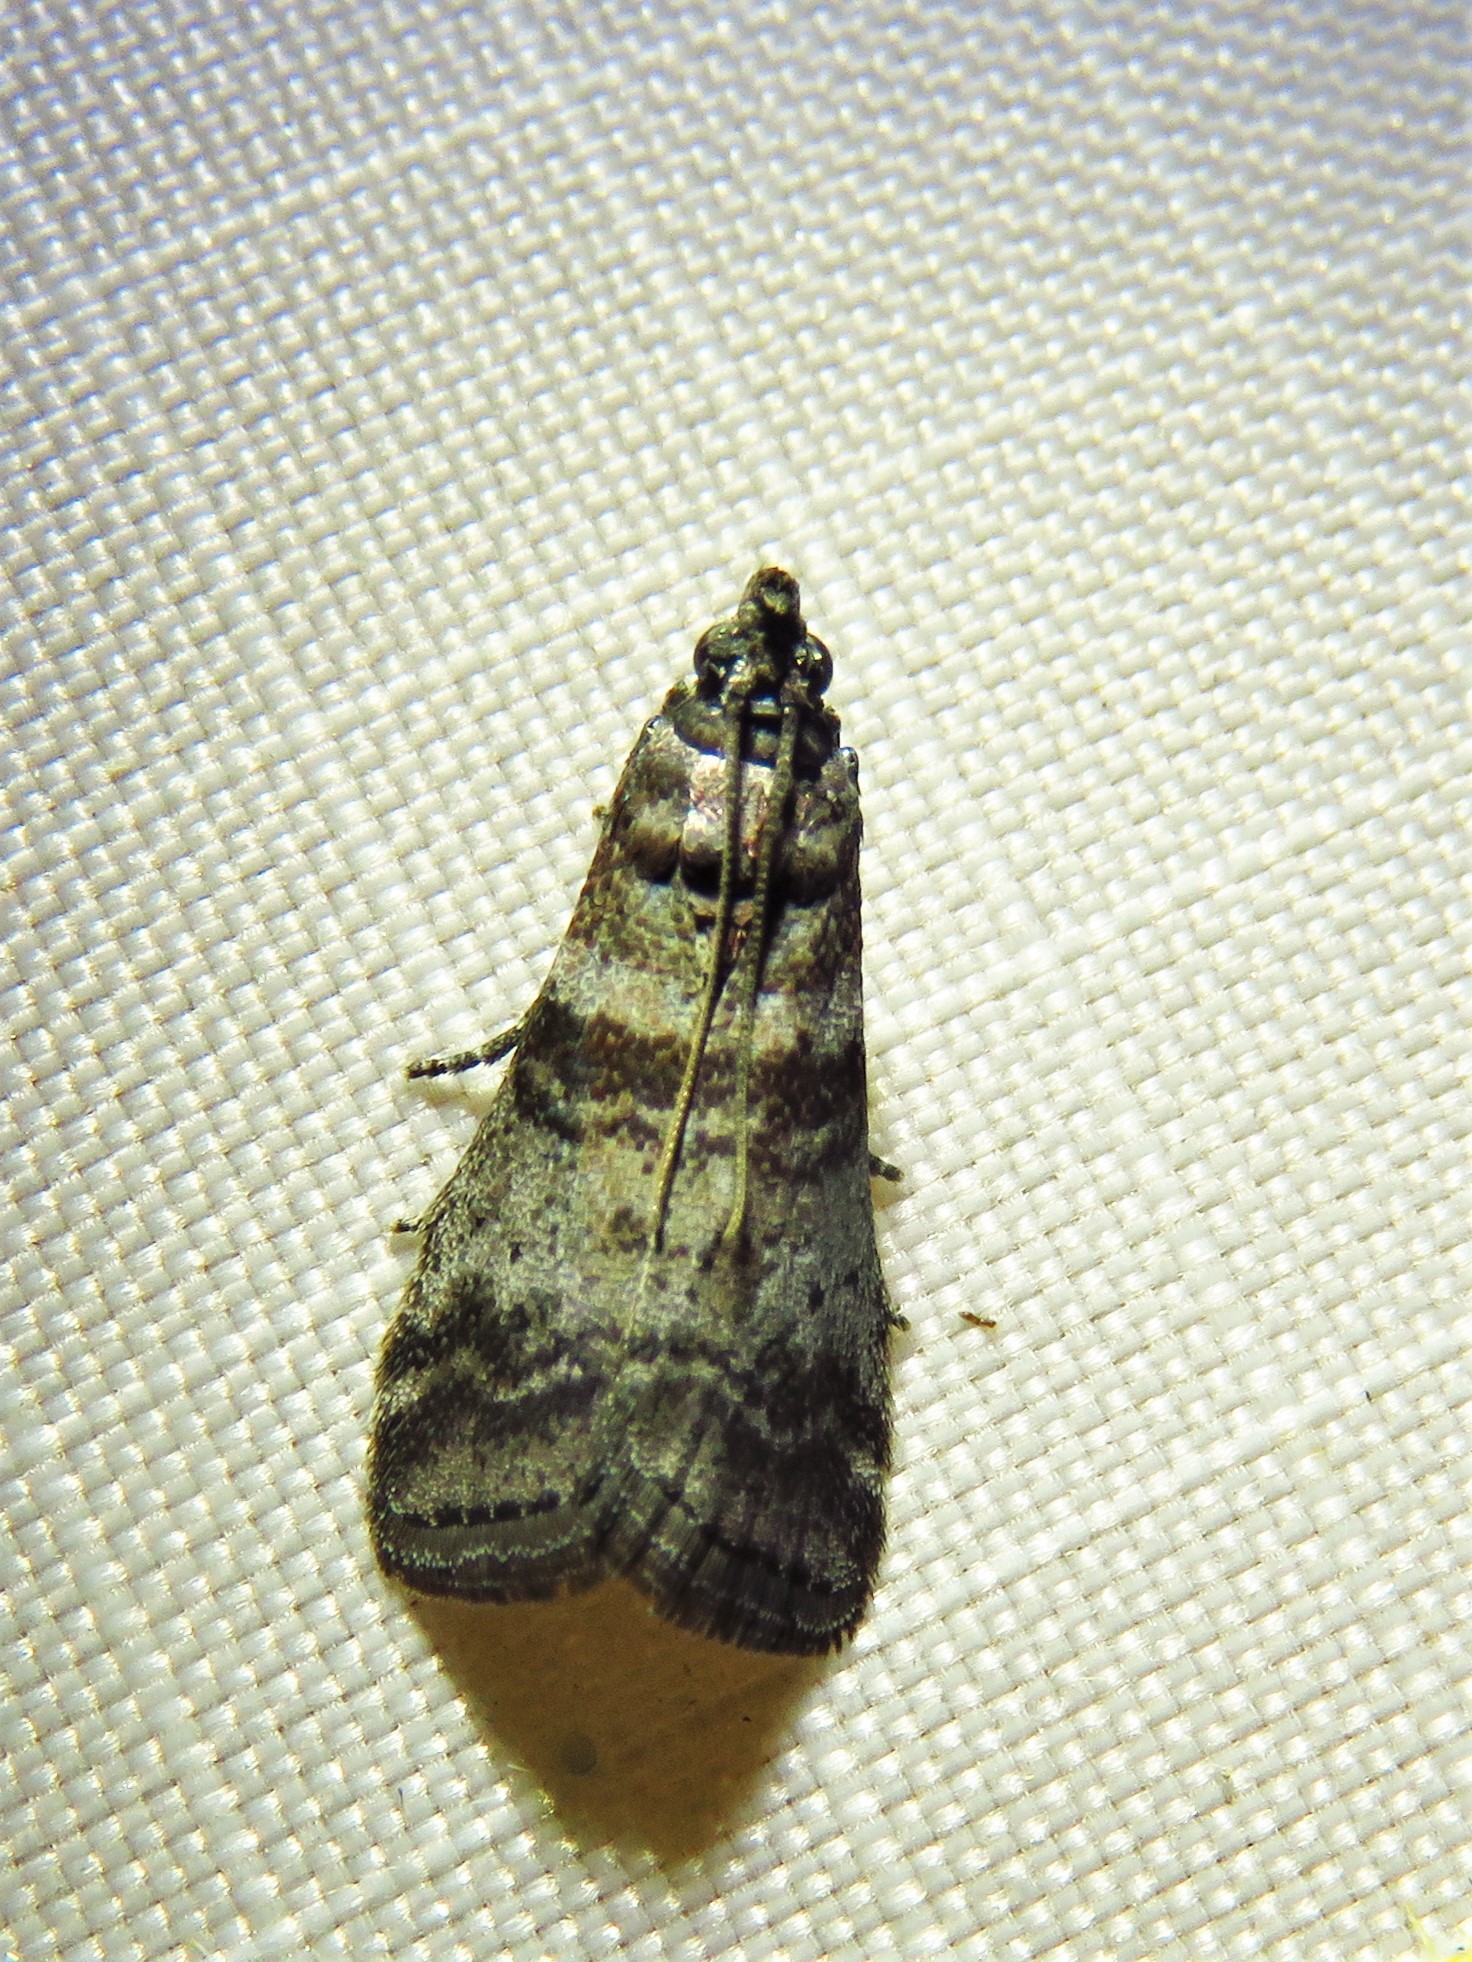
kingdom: Animalia
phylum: Arthropoda
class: Insecta
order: Lepidoptera
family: Pyralidae
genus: Sciota
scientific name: Sciota uvinella
